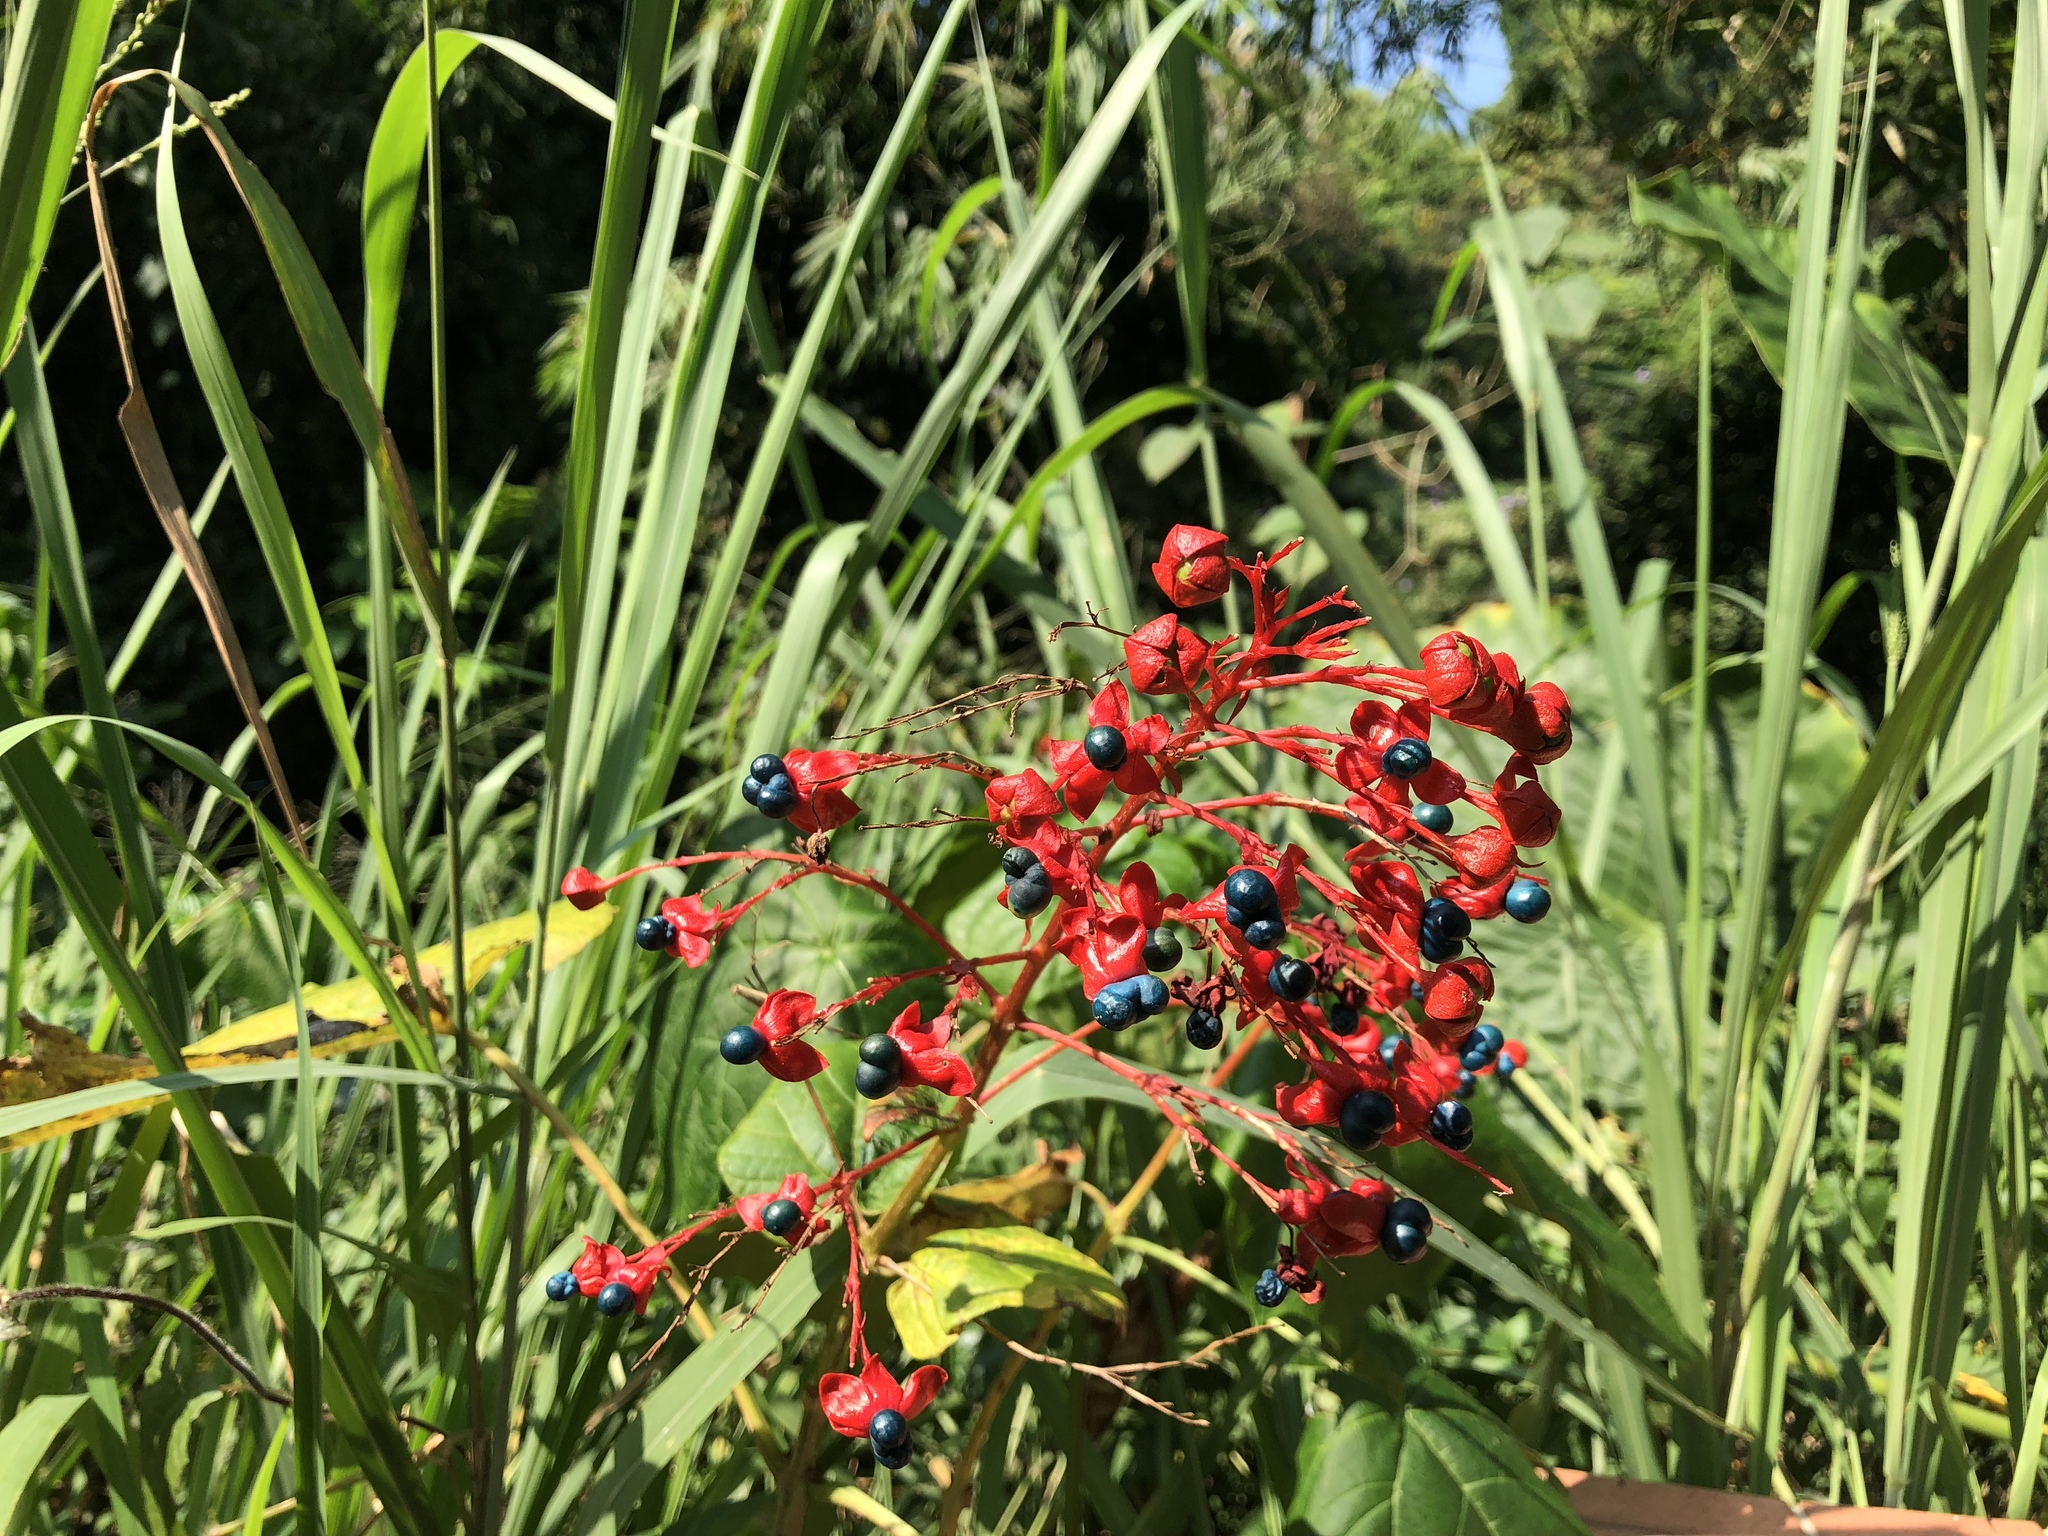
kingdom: Plantae
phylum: Tracheophyta
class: Magnoliopsida
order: Lamiales
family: Lamiaceae
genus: Clerodendrum
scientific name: Clerodendrum japonicum
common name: Japanese glorybower
